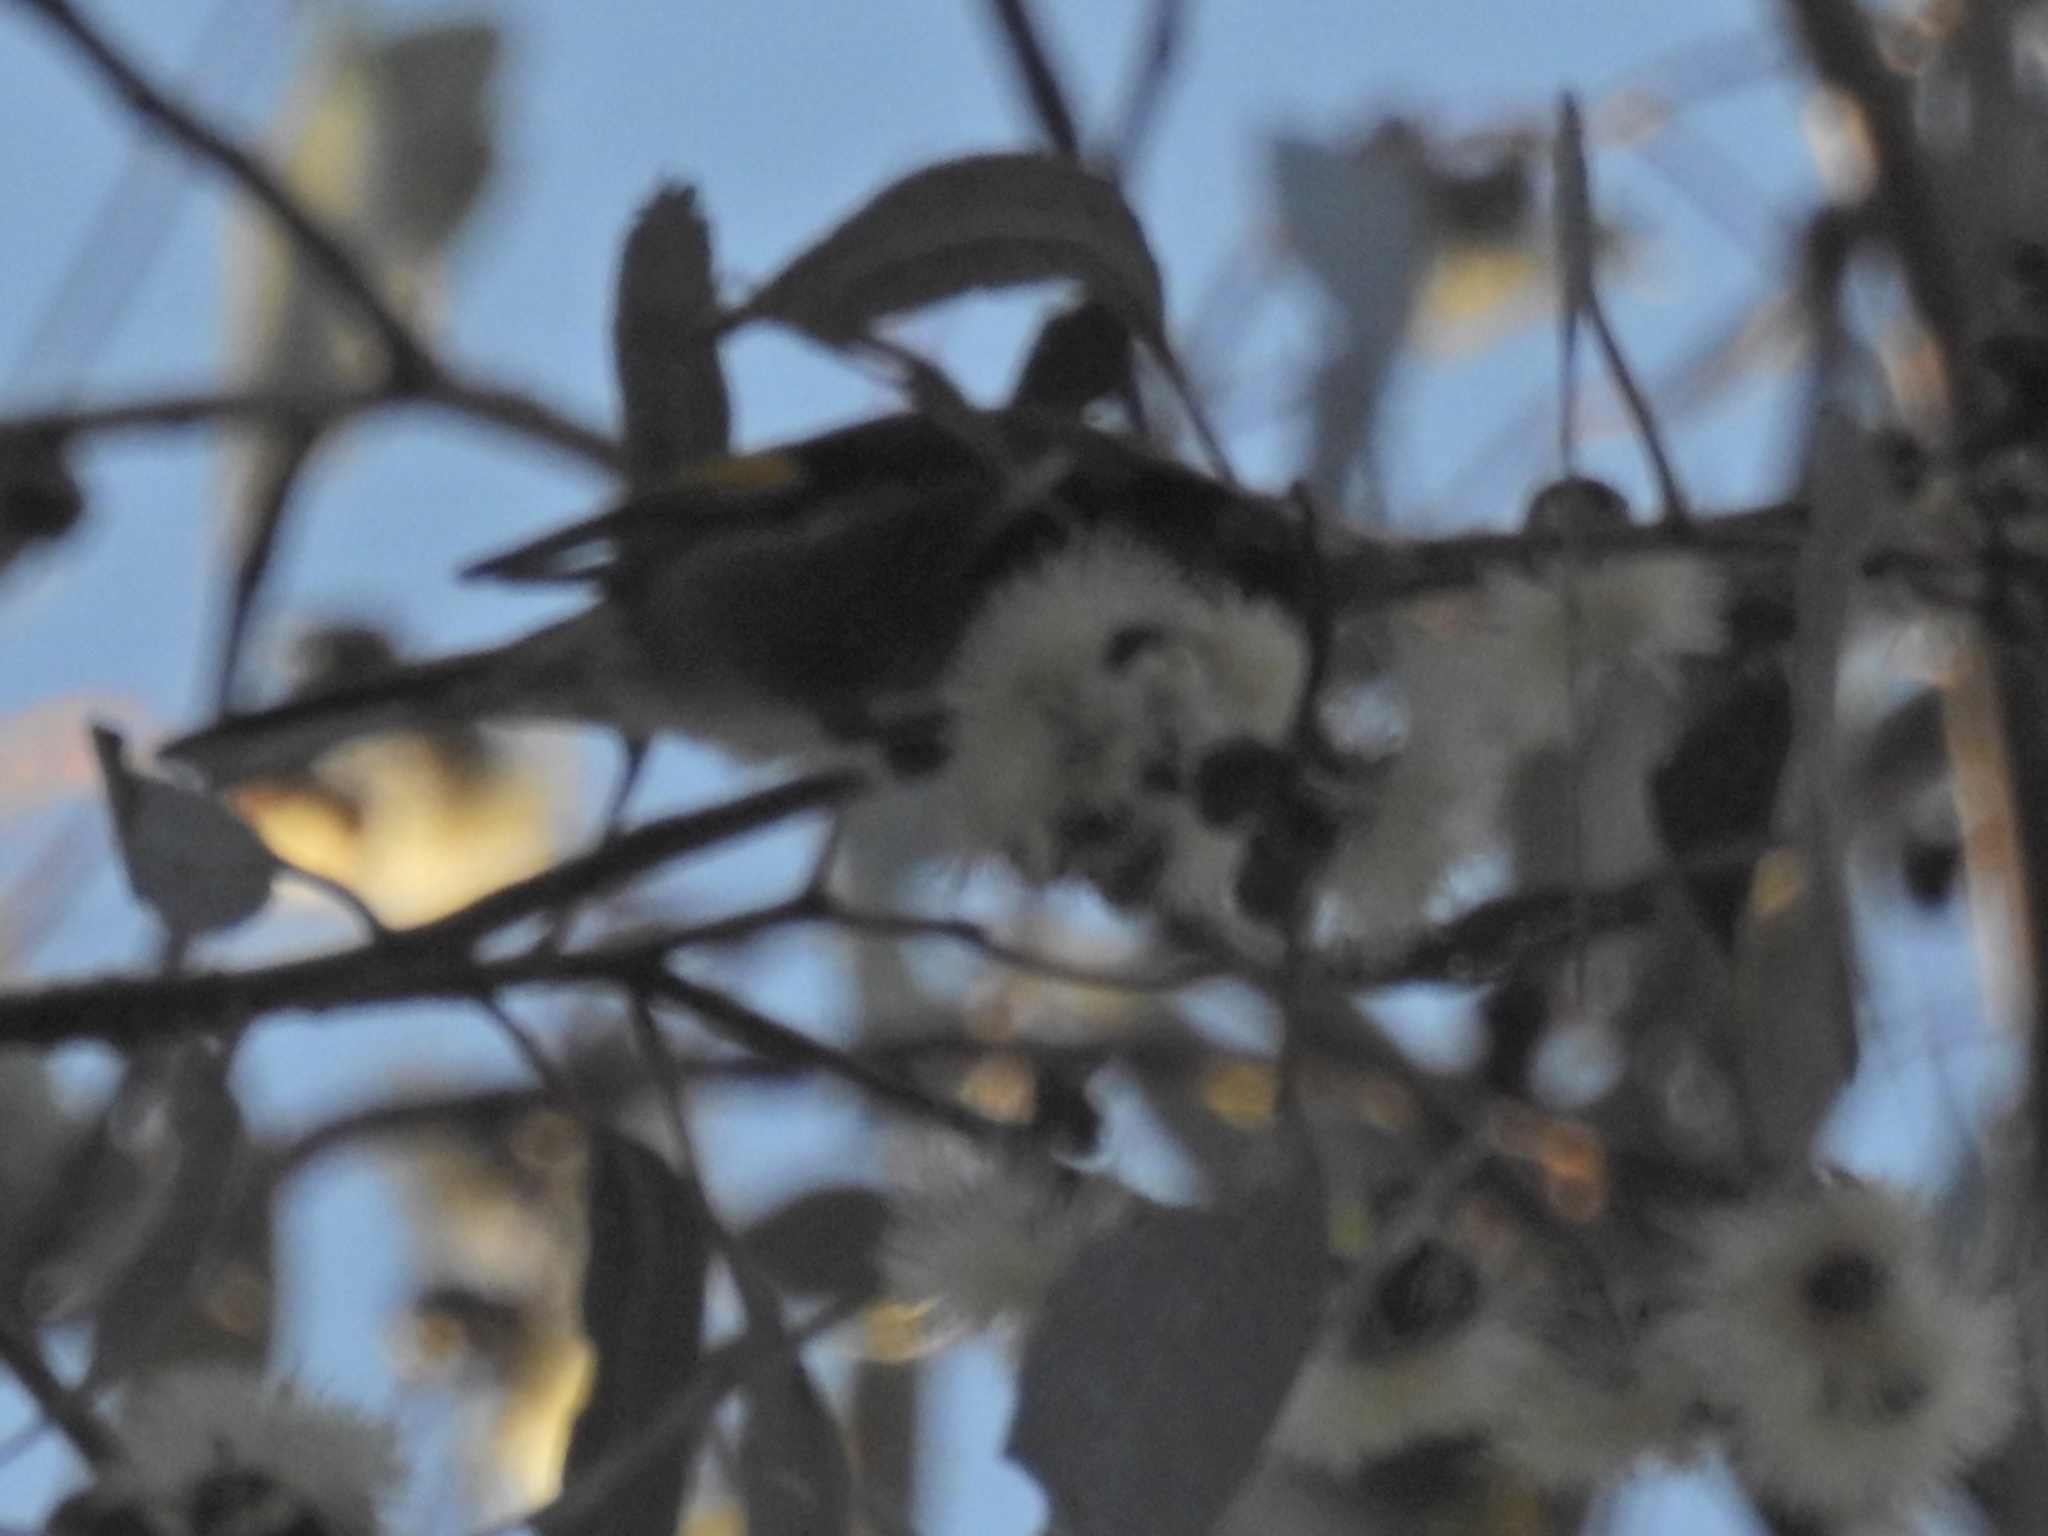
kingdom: Animalia
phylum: Chordata
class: Aves
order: Passeriformes
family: Meliphagidae
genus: Phylidonyris
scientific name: Phylidonyris pyrrhopterus
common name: Crescent honeyeater
